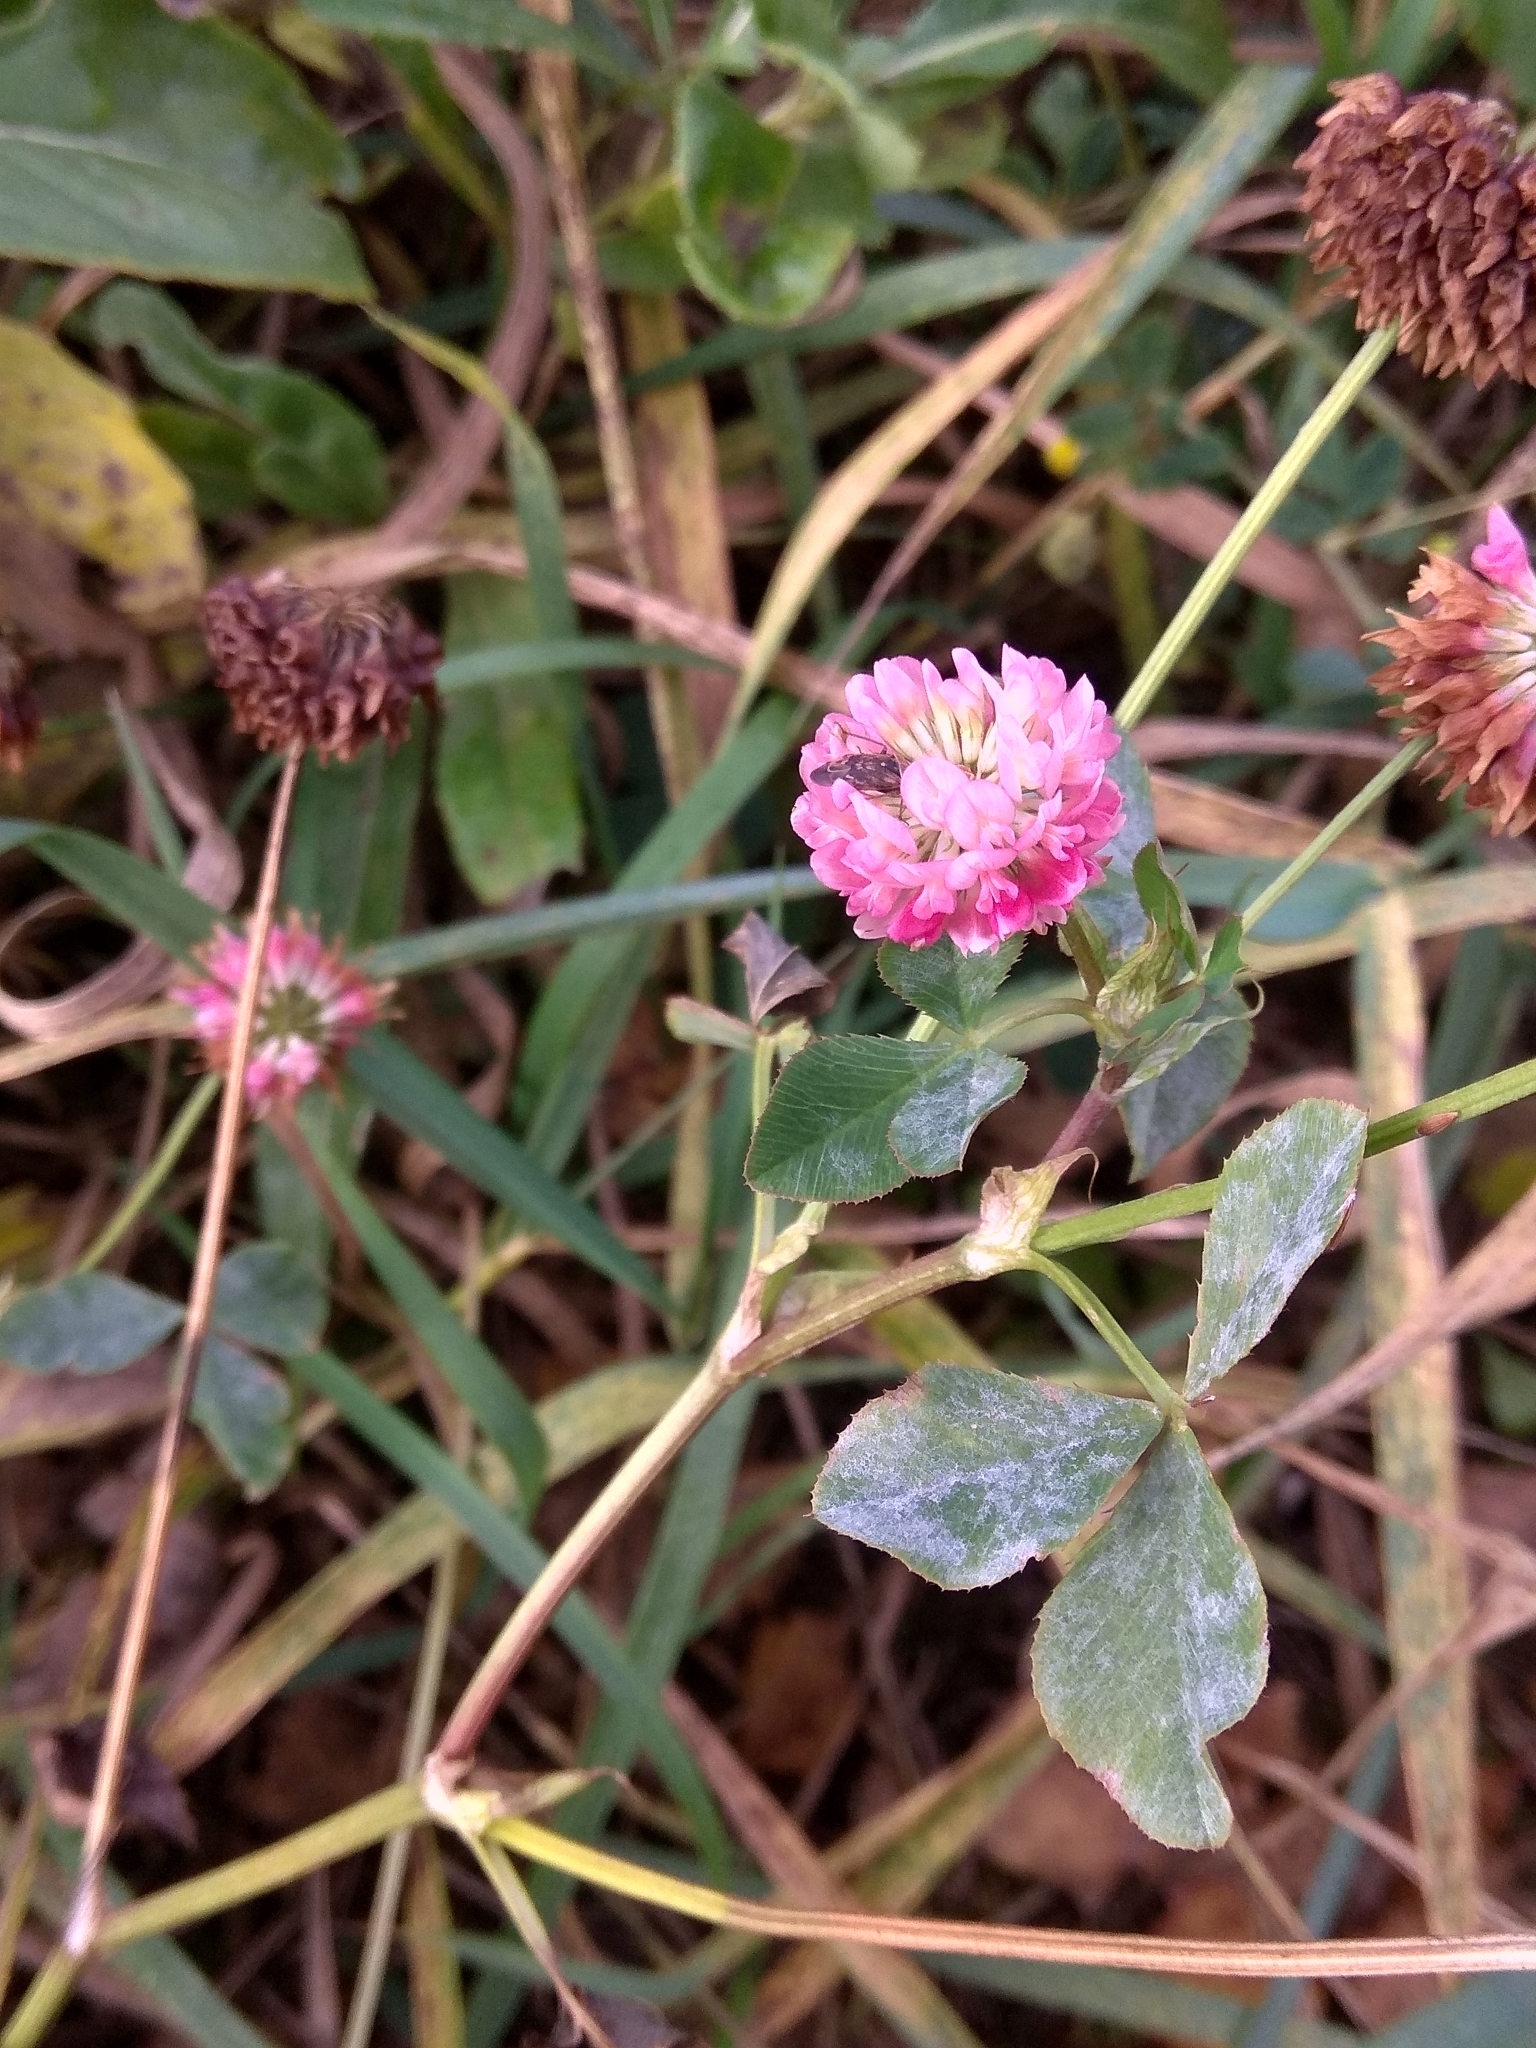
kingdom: Plantae
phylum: Tracheophyta
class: Magnoliopsida
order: Fabales
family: Fabaceae
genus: Trifolium
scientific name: Trifolium hybridum
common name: Alsike clover
